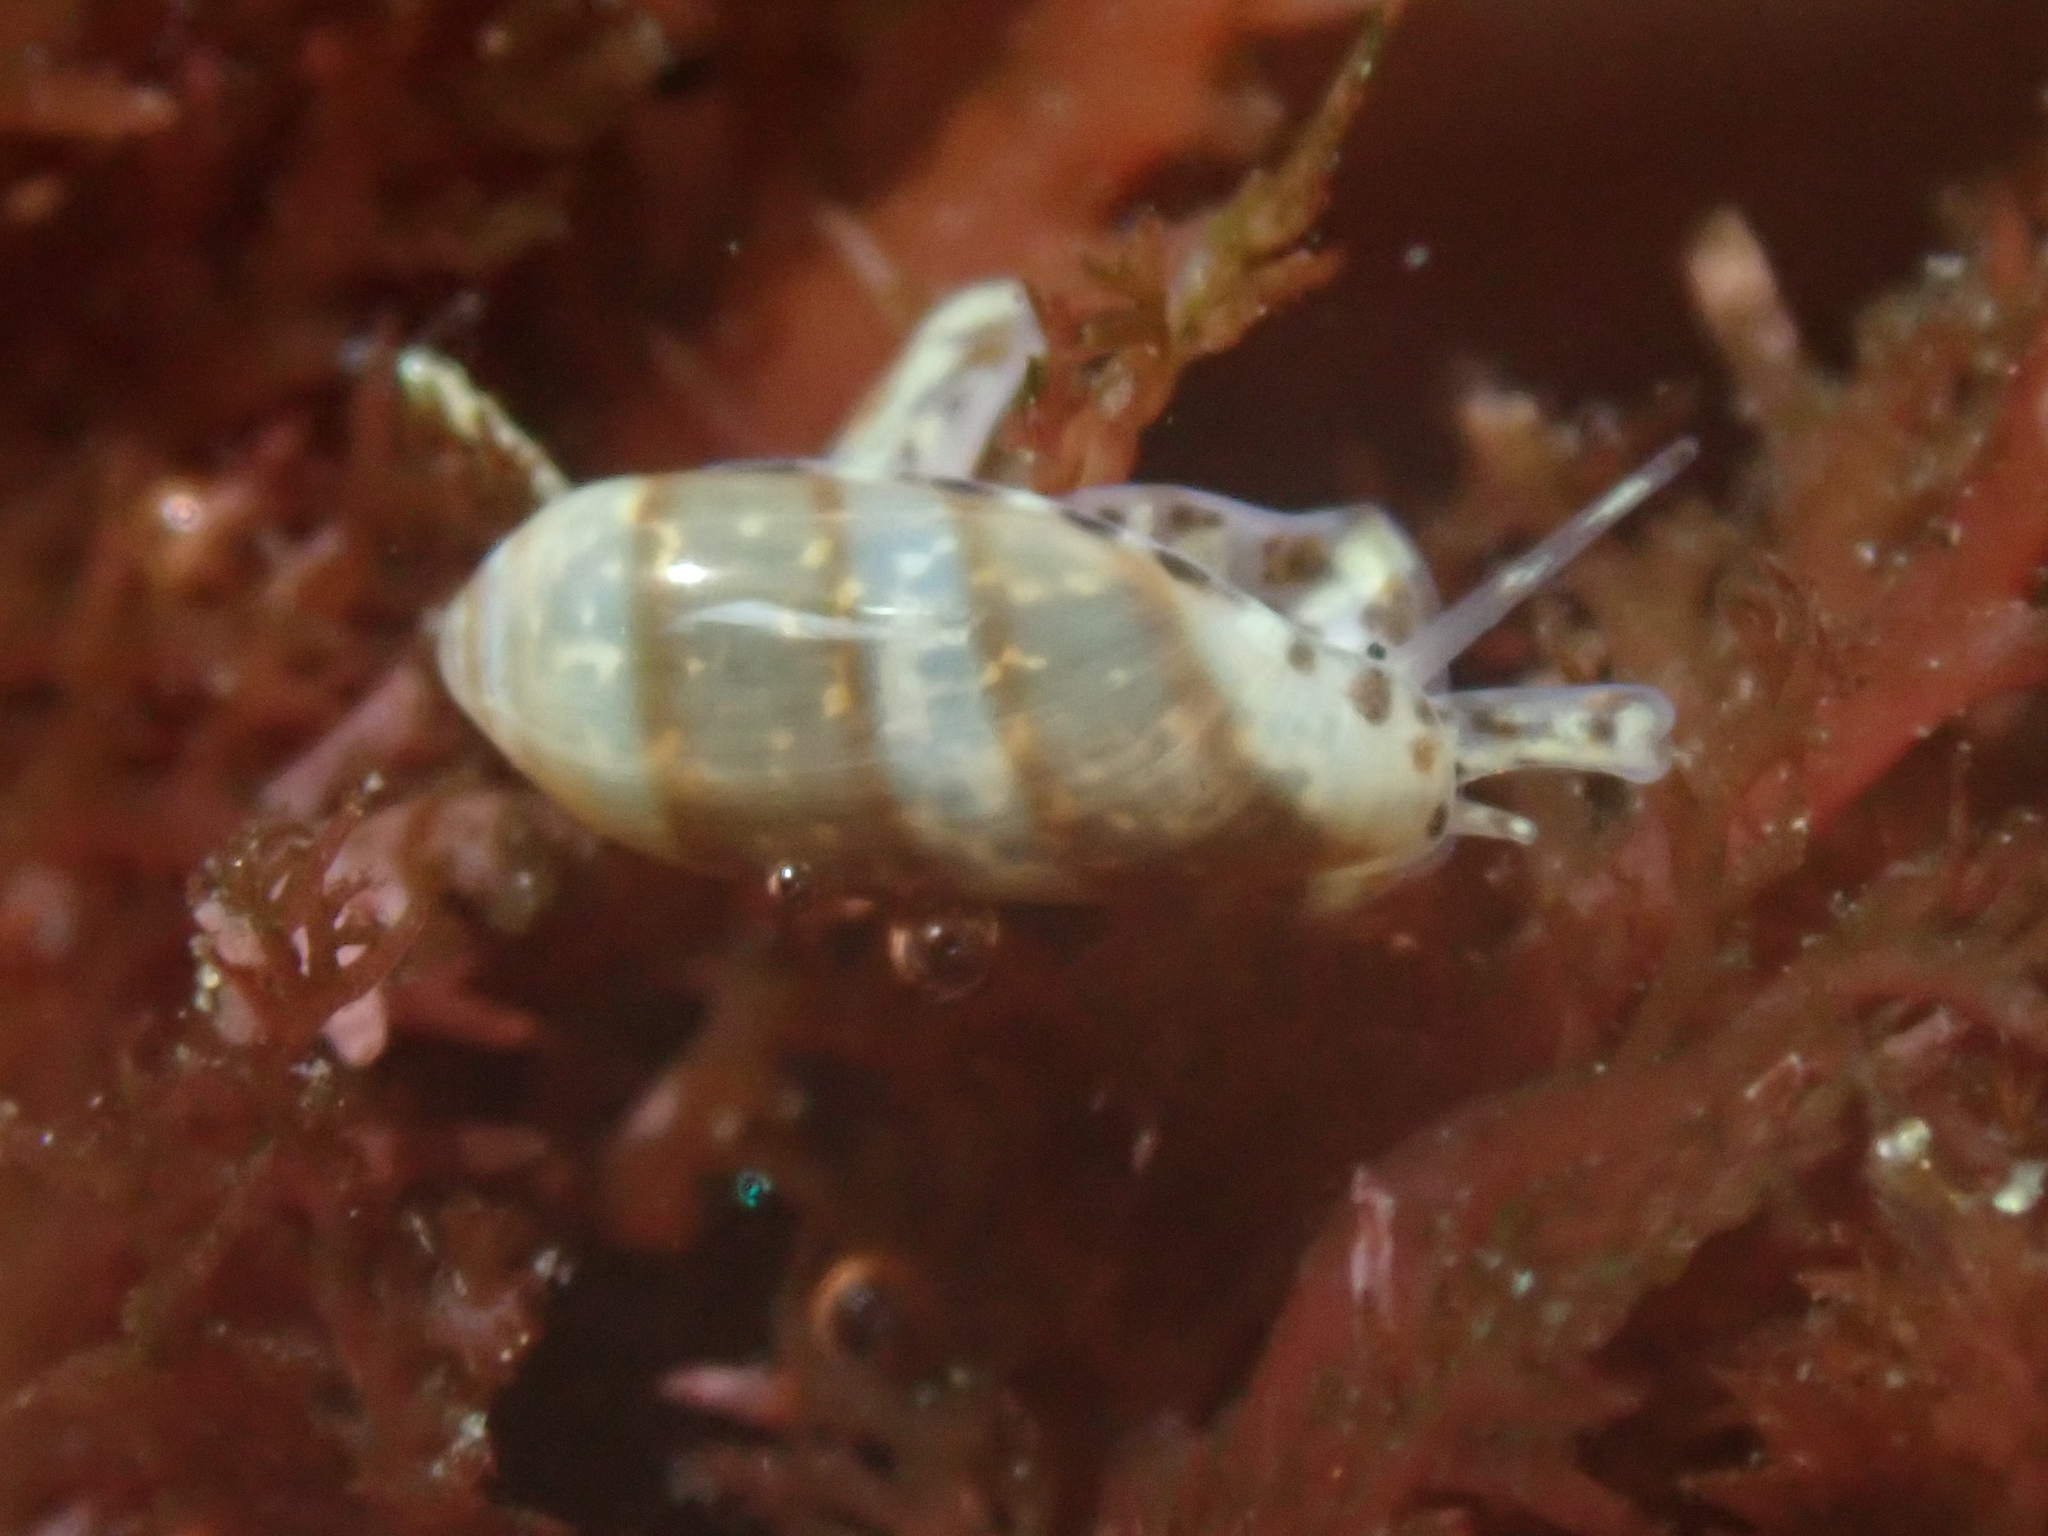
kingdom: Animalia
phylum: Mollusca
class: Gastropoda
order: Neogastropoda
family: Marginellidae
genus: Volvarina
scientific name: Volvarina taeniolata
